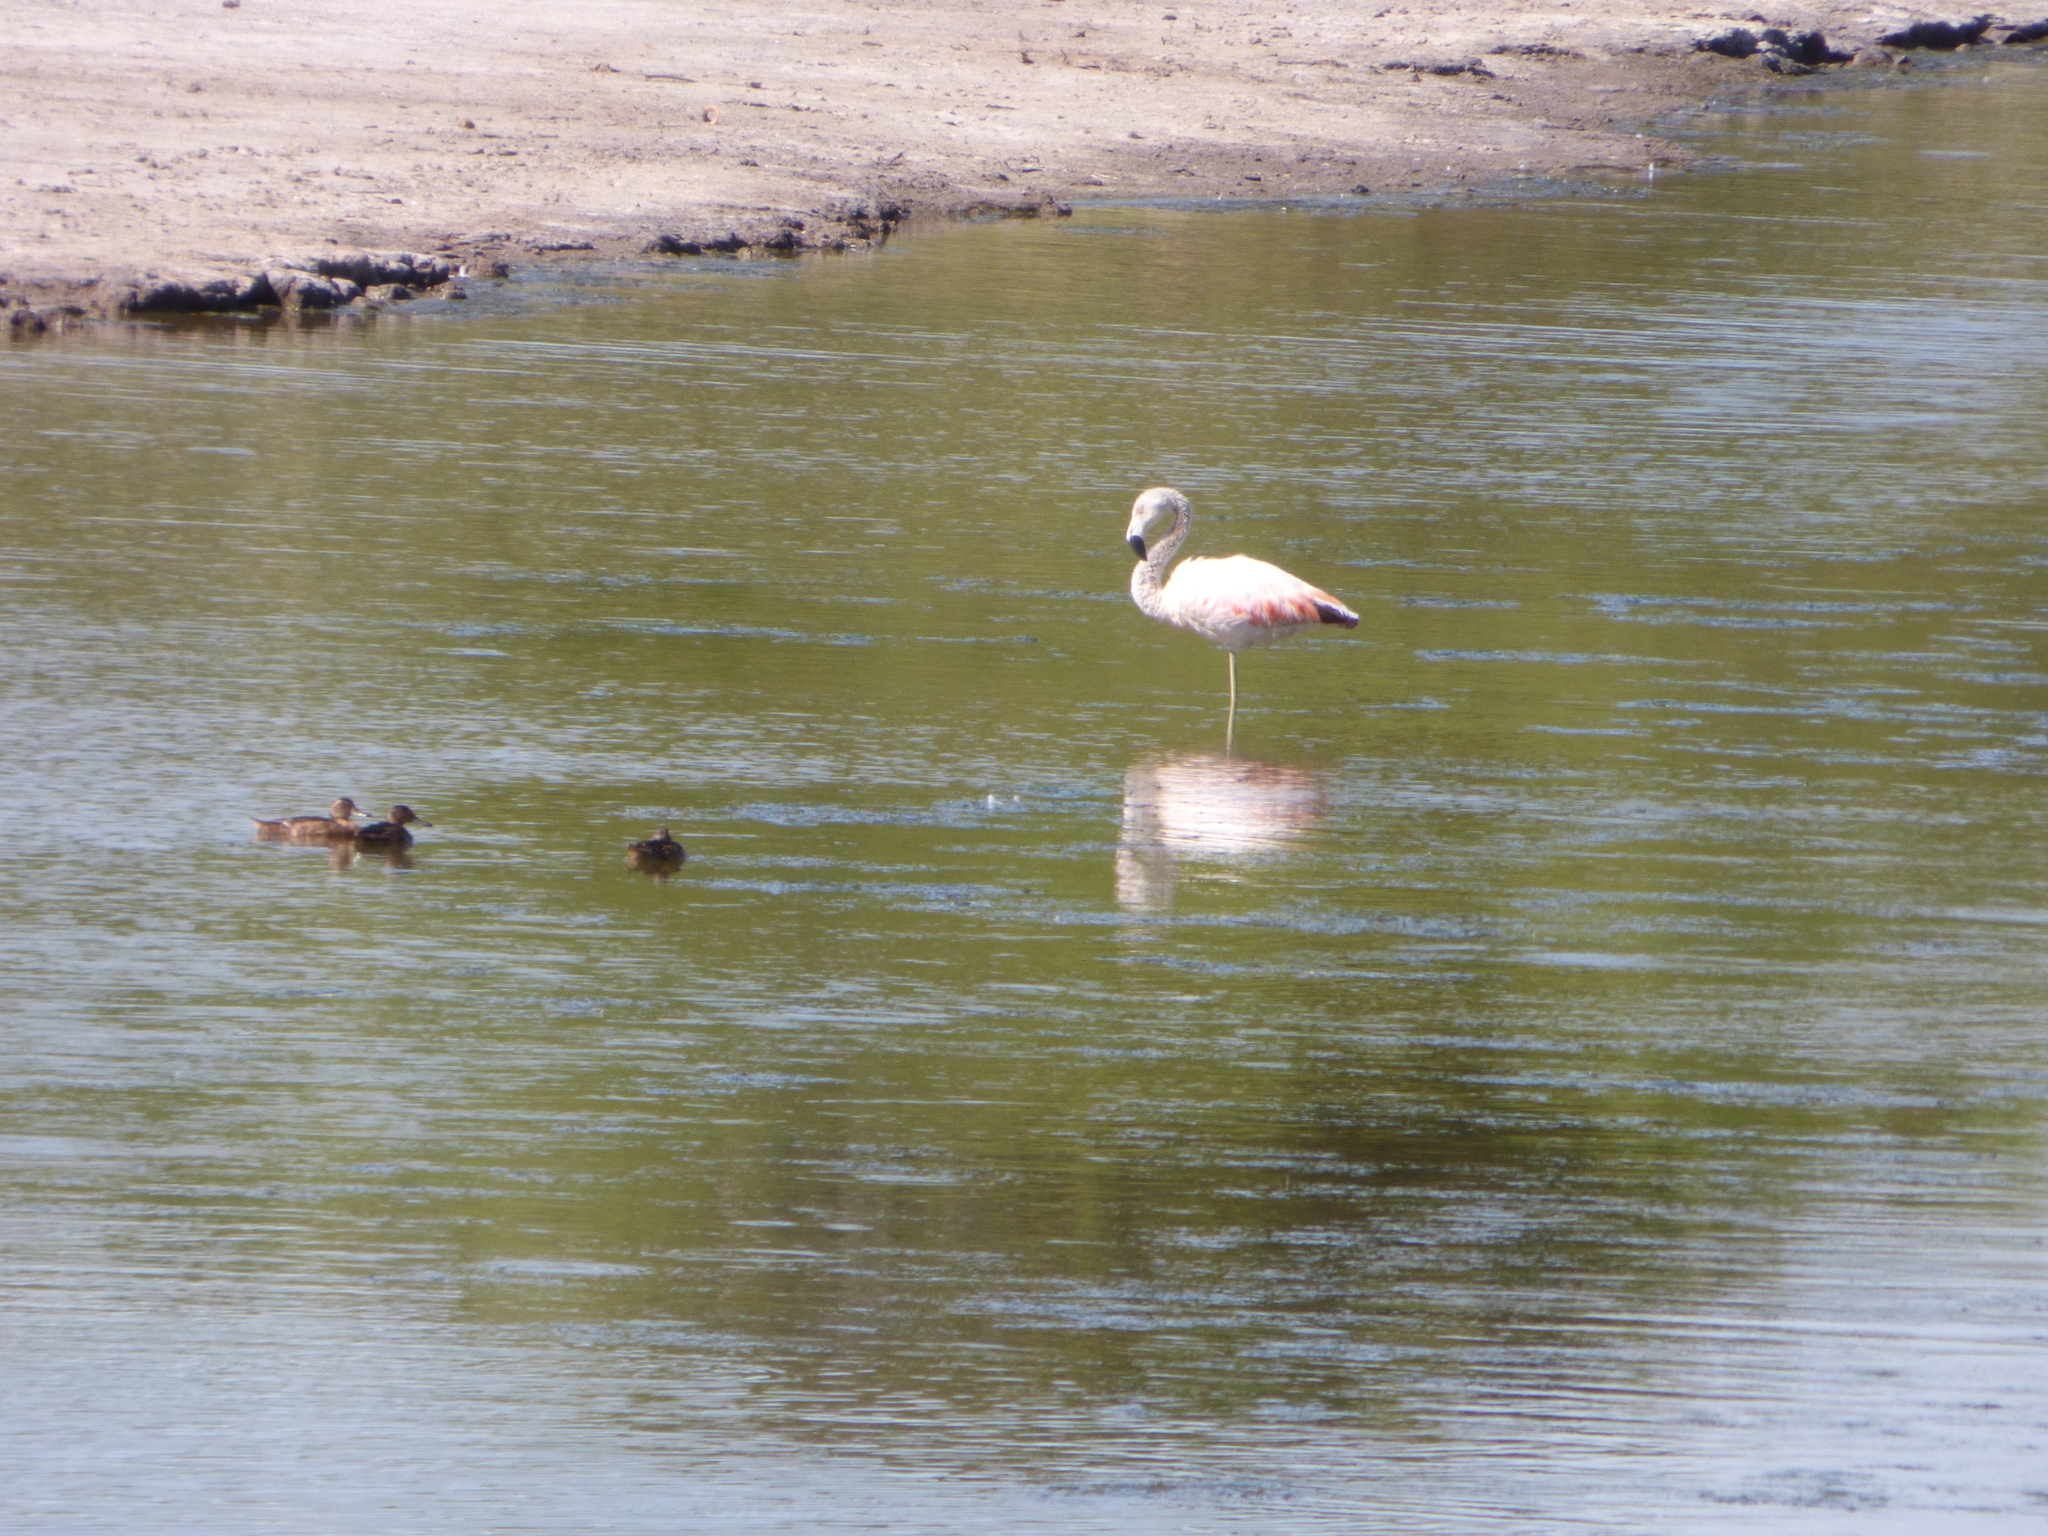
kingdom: Animalia
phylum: Chordata
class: Aves
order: Phoenicopteriformes
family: Phoenicopteridae
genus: Phoenicopterus
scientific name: Phoenicopterus chilensis
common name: Chilean flamingo
